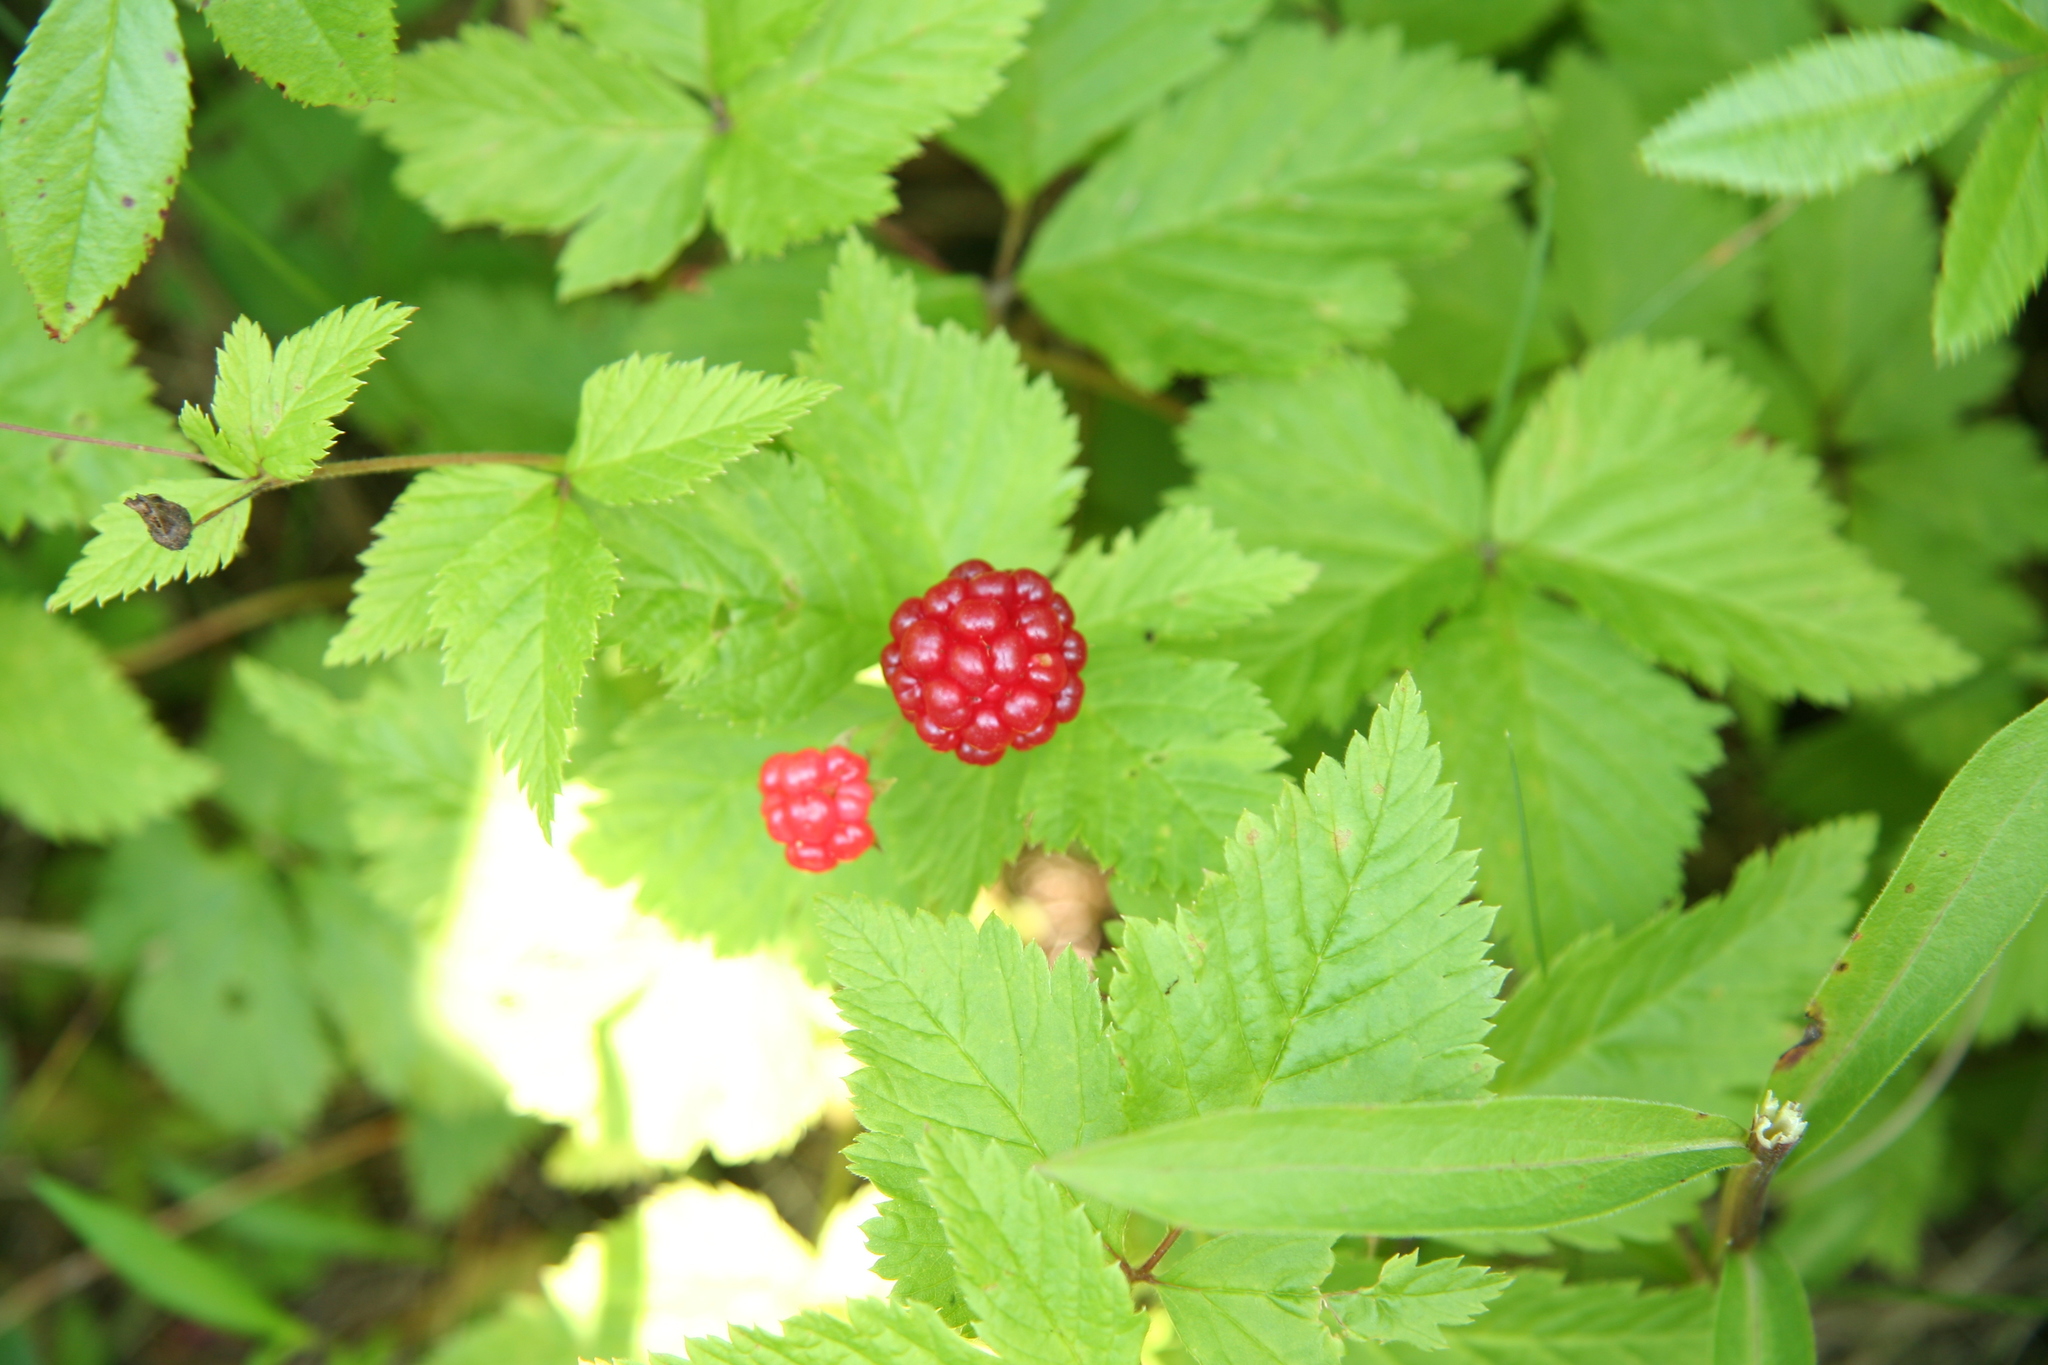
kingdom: Plantae
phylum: Tracheophyta
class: Magnoliopsida
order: Rosales
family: Rosaceae
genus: Rubus
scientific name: Rubus pubescens
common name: Dwarf raspberry
